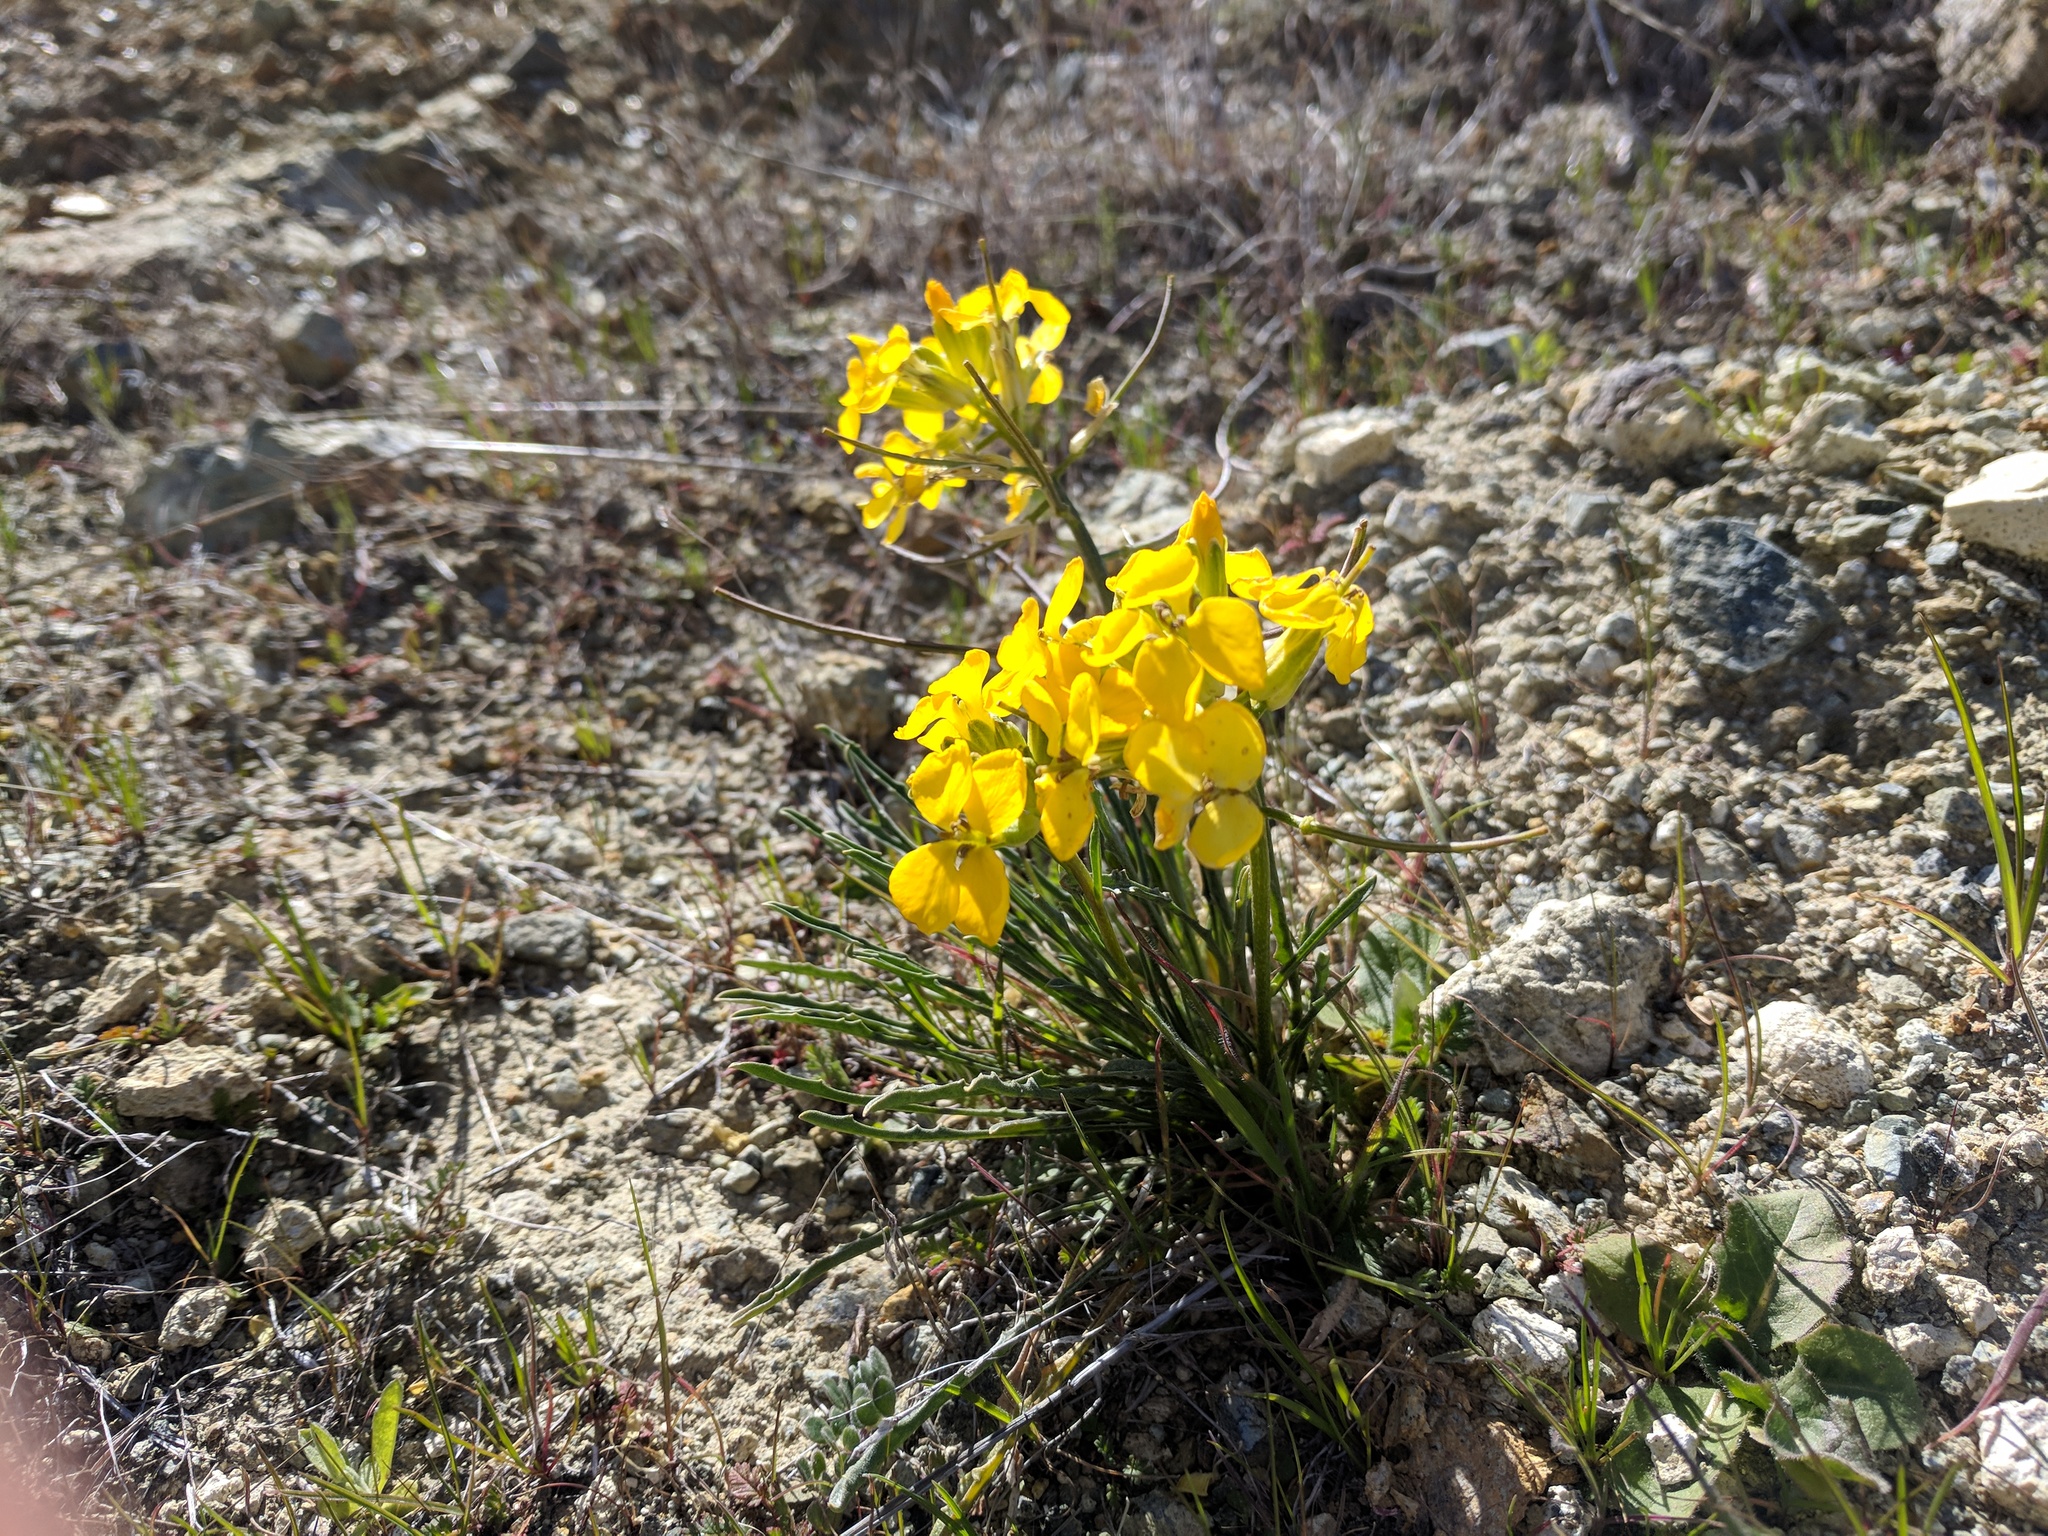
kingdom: Plantae
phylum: Tracheophyta
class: Magnoliopsida
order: Brassicales
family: Brassicaceae
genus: Erysimum
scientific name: Erysimum franciscanum
